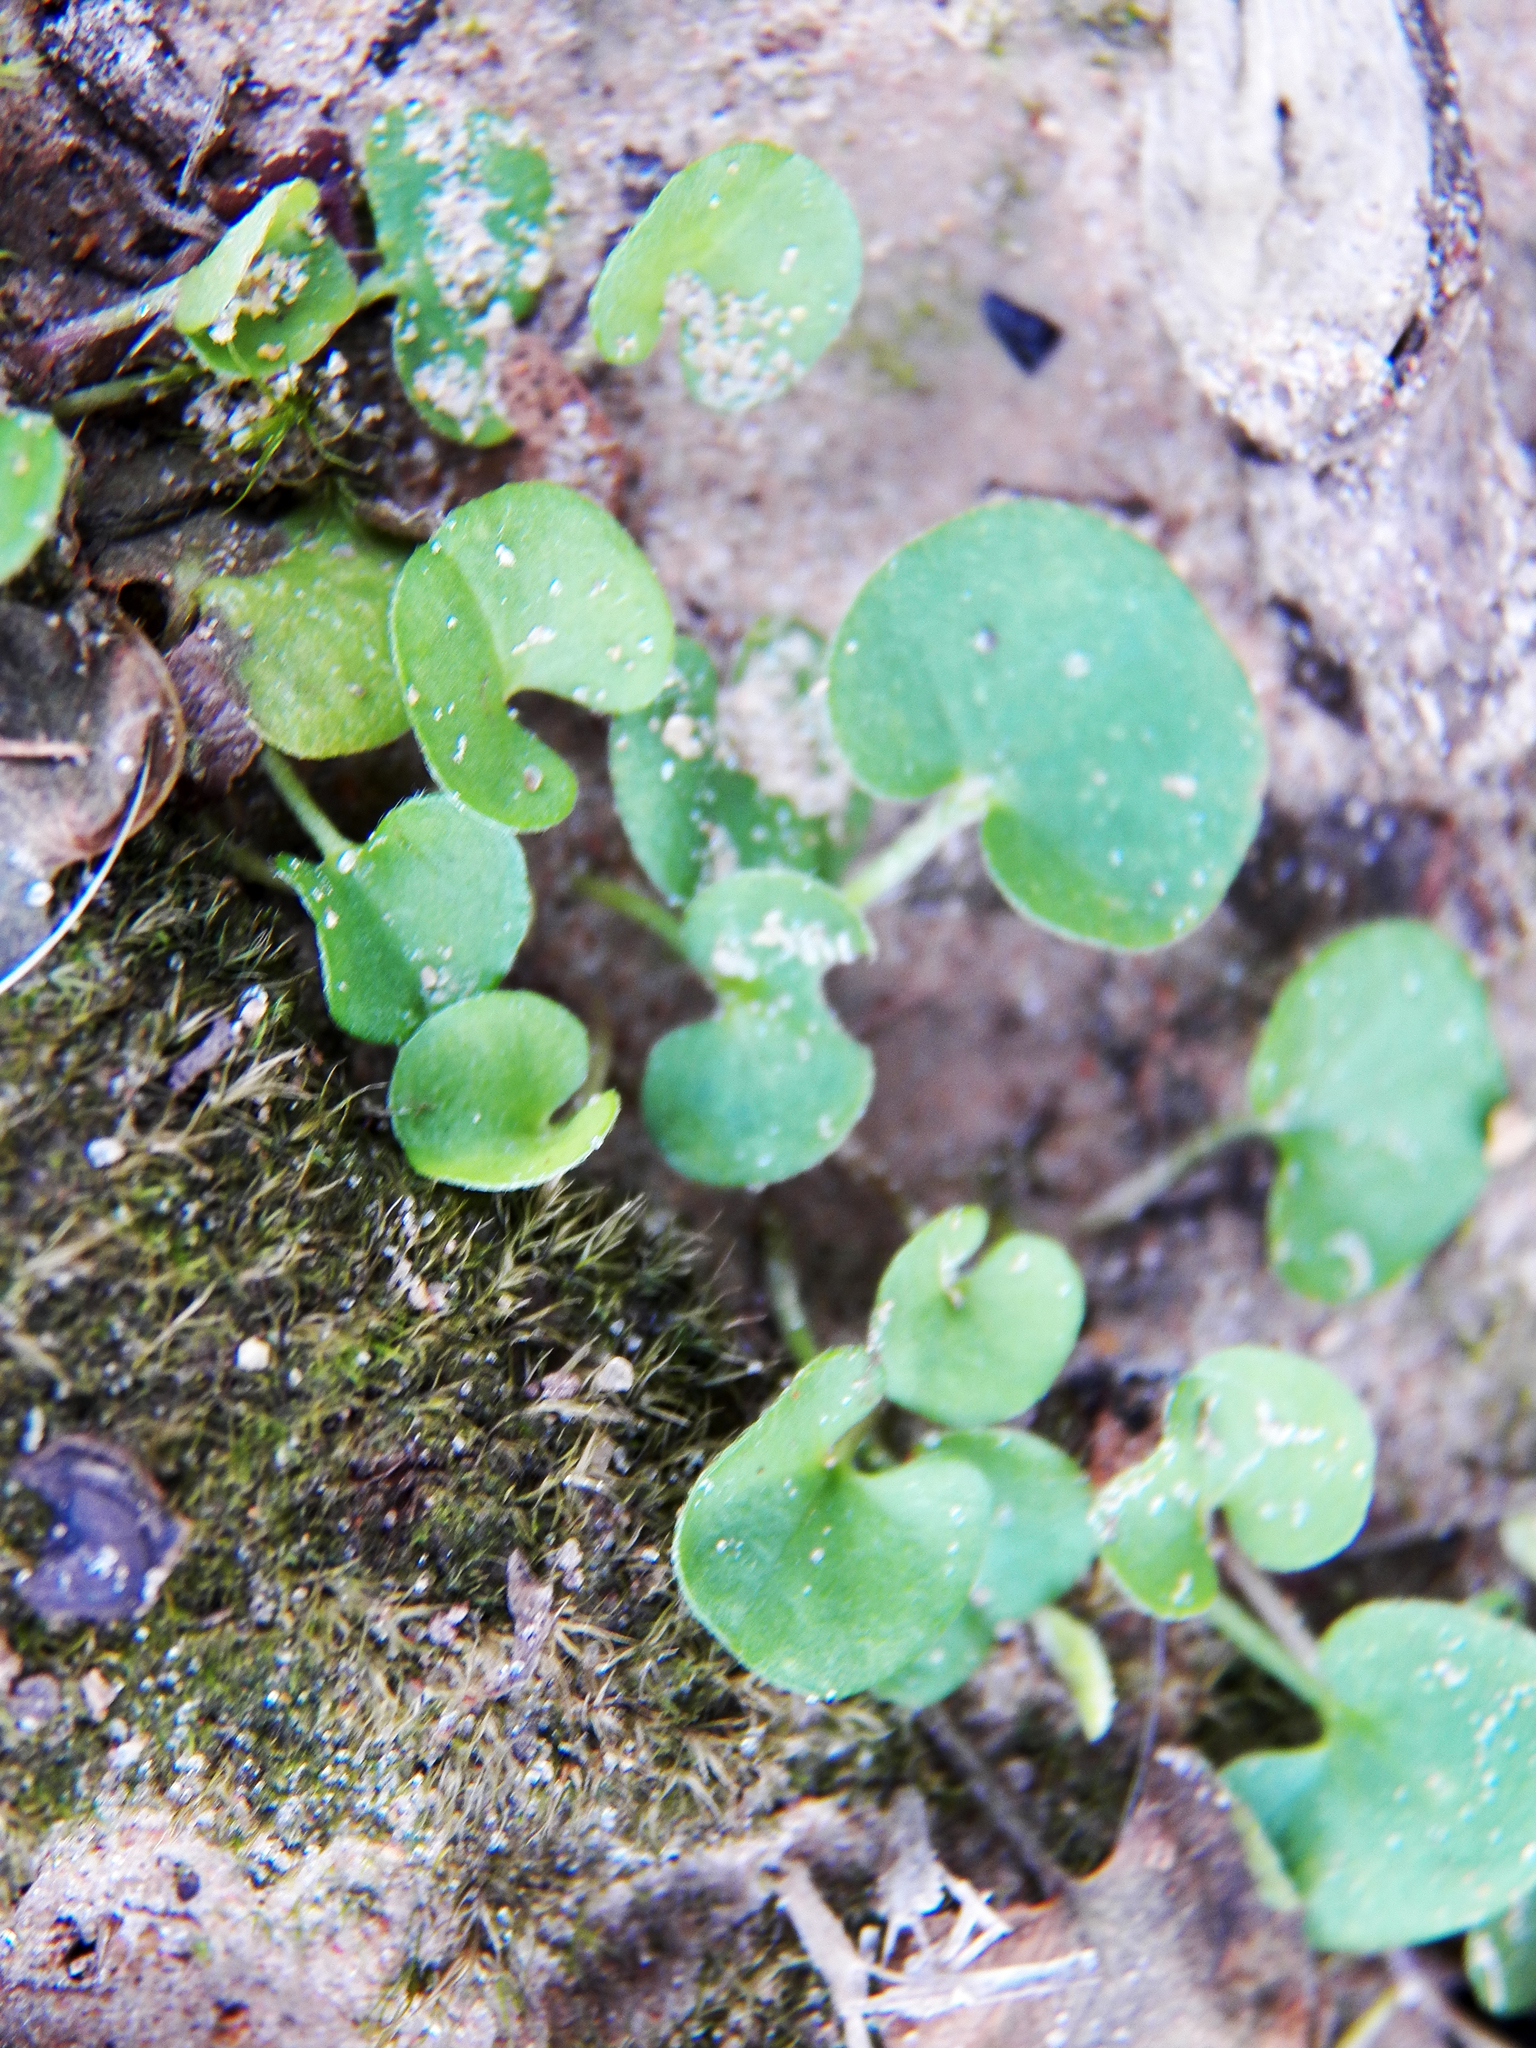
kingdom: Plantae
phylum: Tracheophyta
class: Magnoliopsida
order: Solanales
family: Convolvulaceae
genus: Dichondra
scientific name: Dichondra carolinensis
